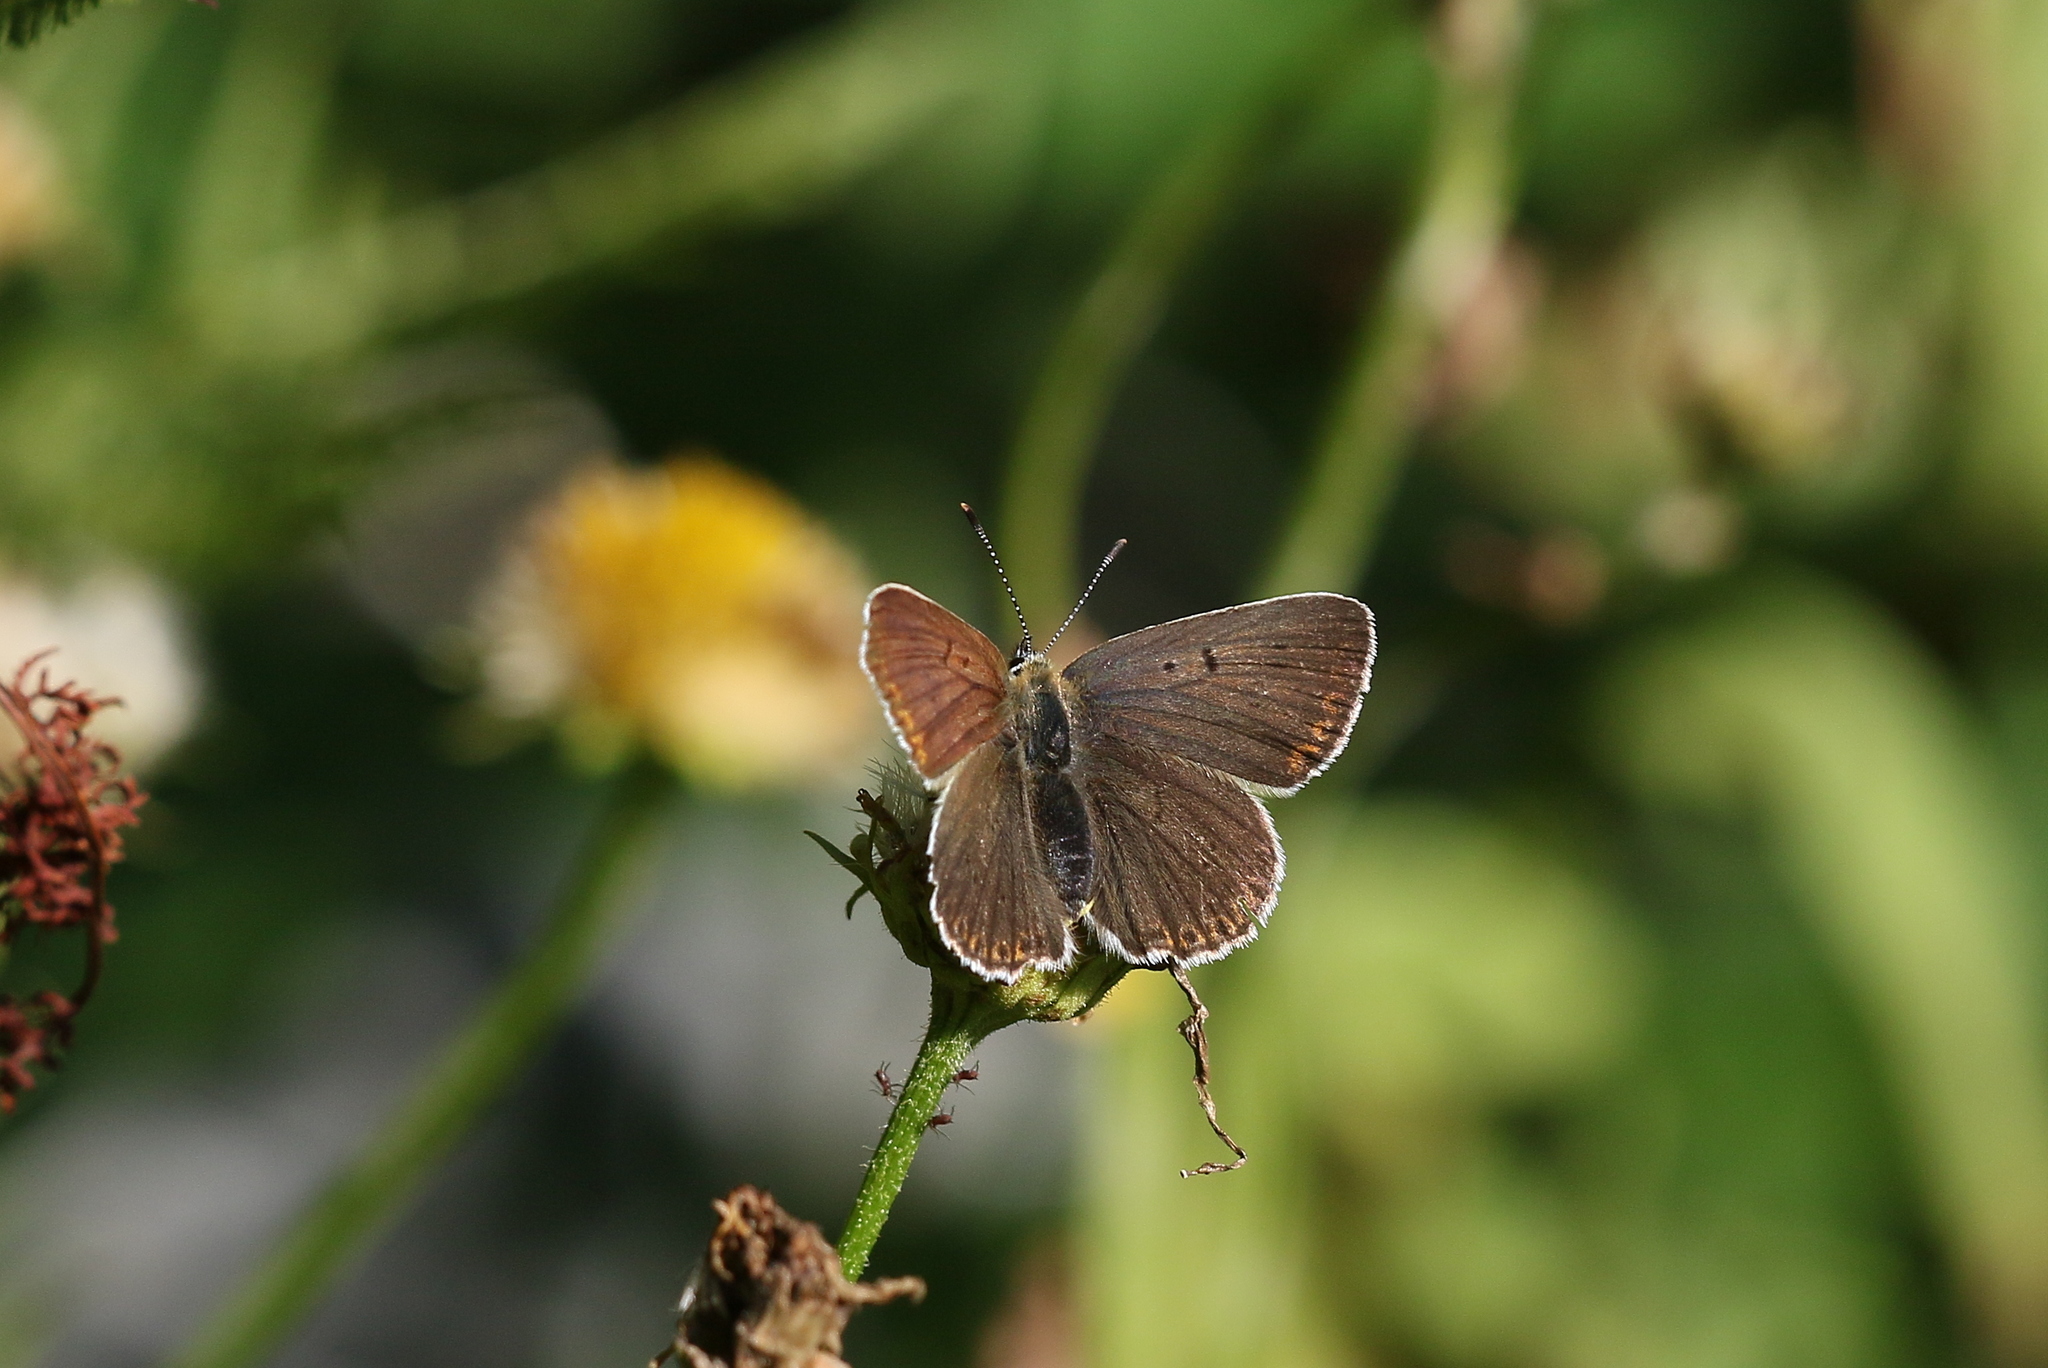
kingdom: Animalia
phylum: Arthropoda
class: Insecta
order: Lepidoptera
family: Lycaenidae
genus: Loweia
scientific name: Loweia tityrus
